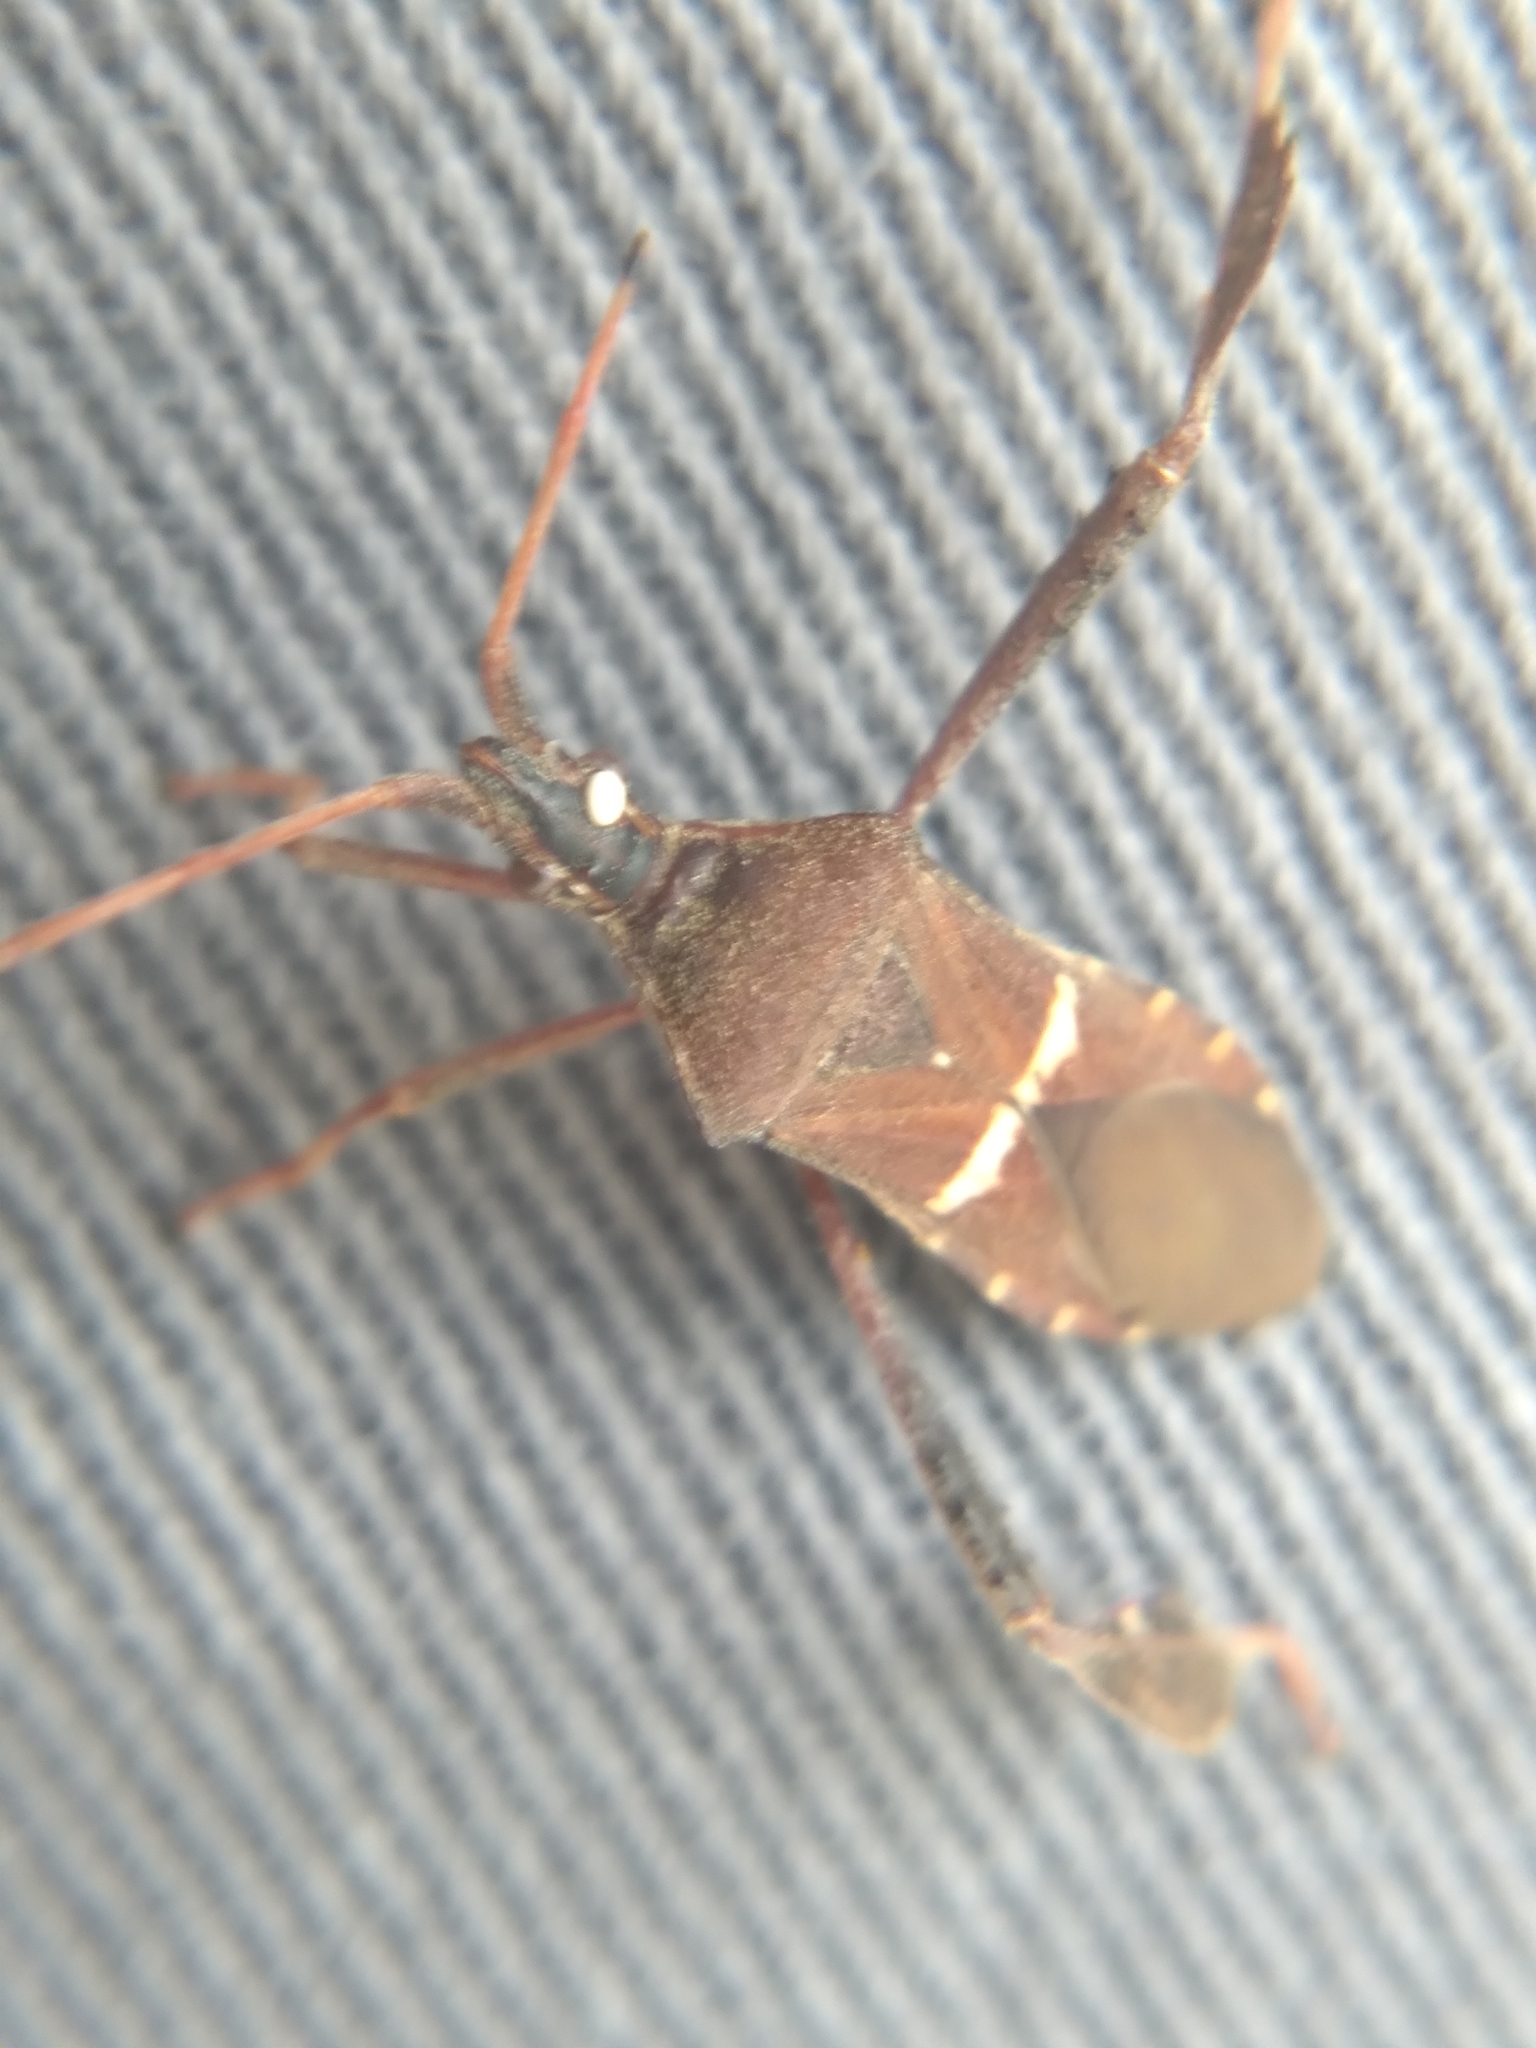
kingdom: Animalia
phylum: Arthropoda
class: Insecta
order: Hemiptera
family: Coreidae
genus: Leptoglossus
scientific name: Leptoglossus phyllopus
